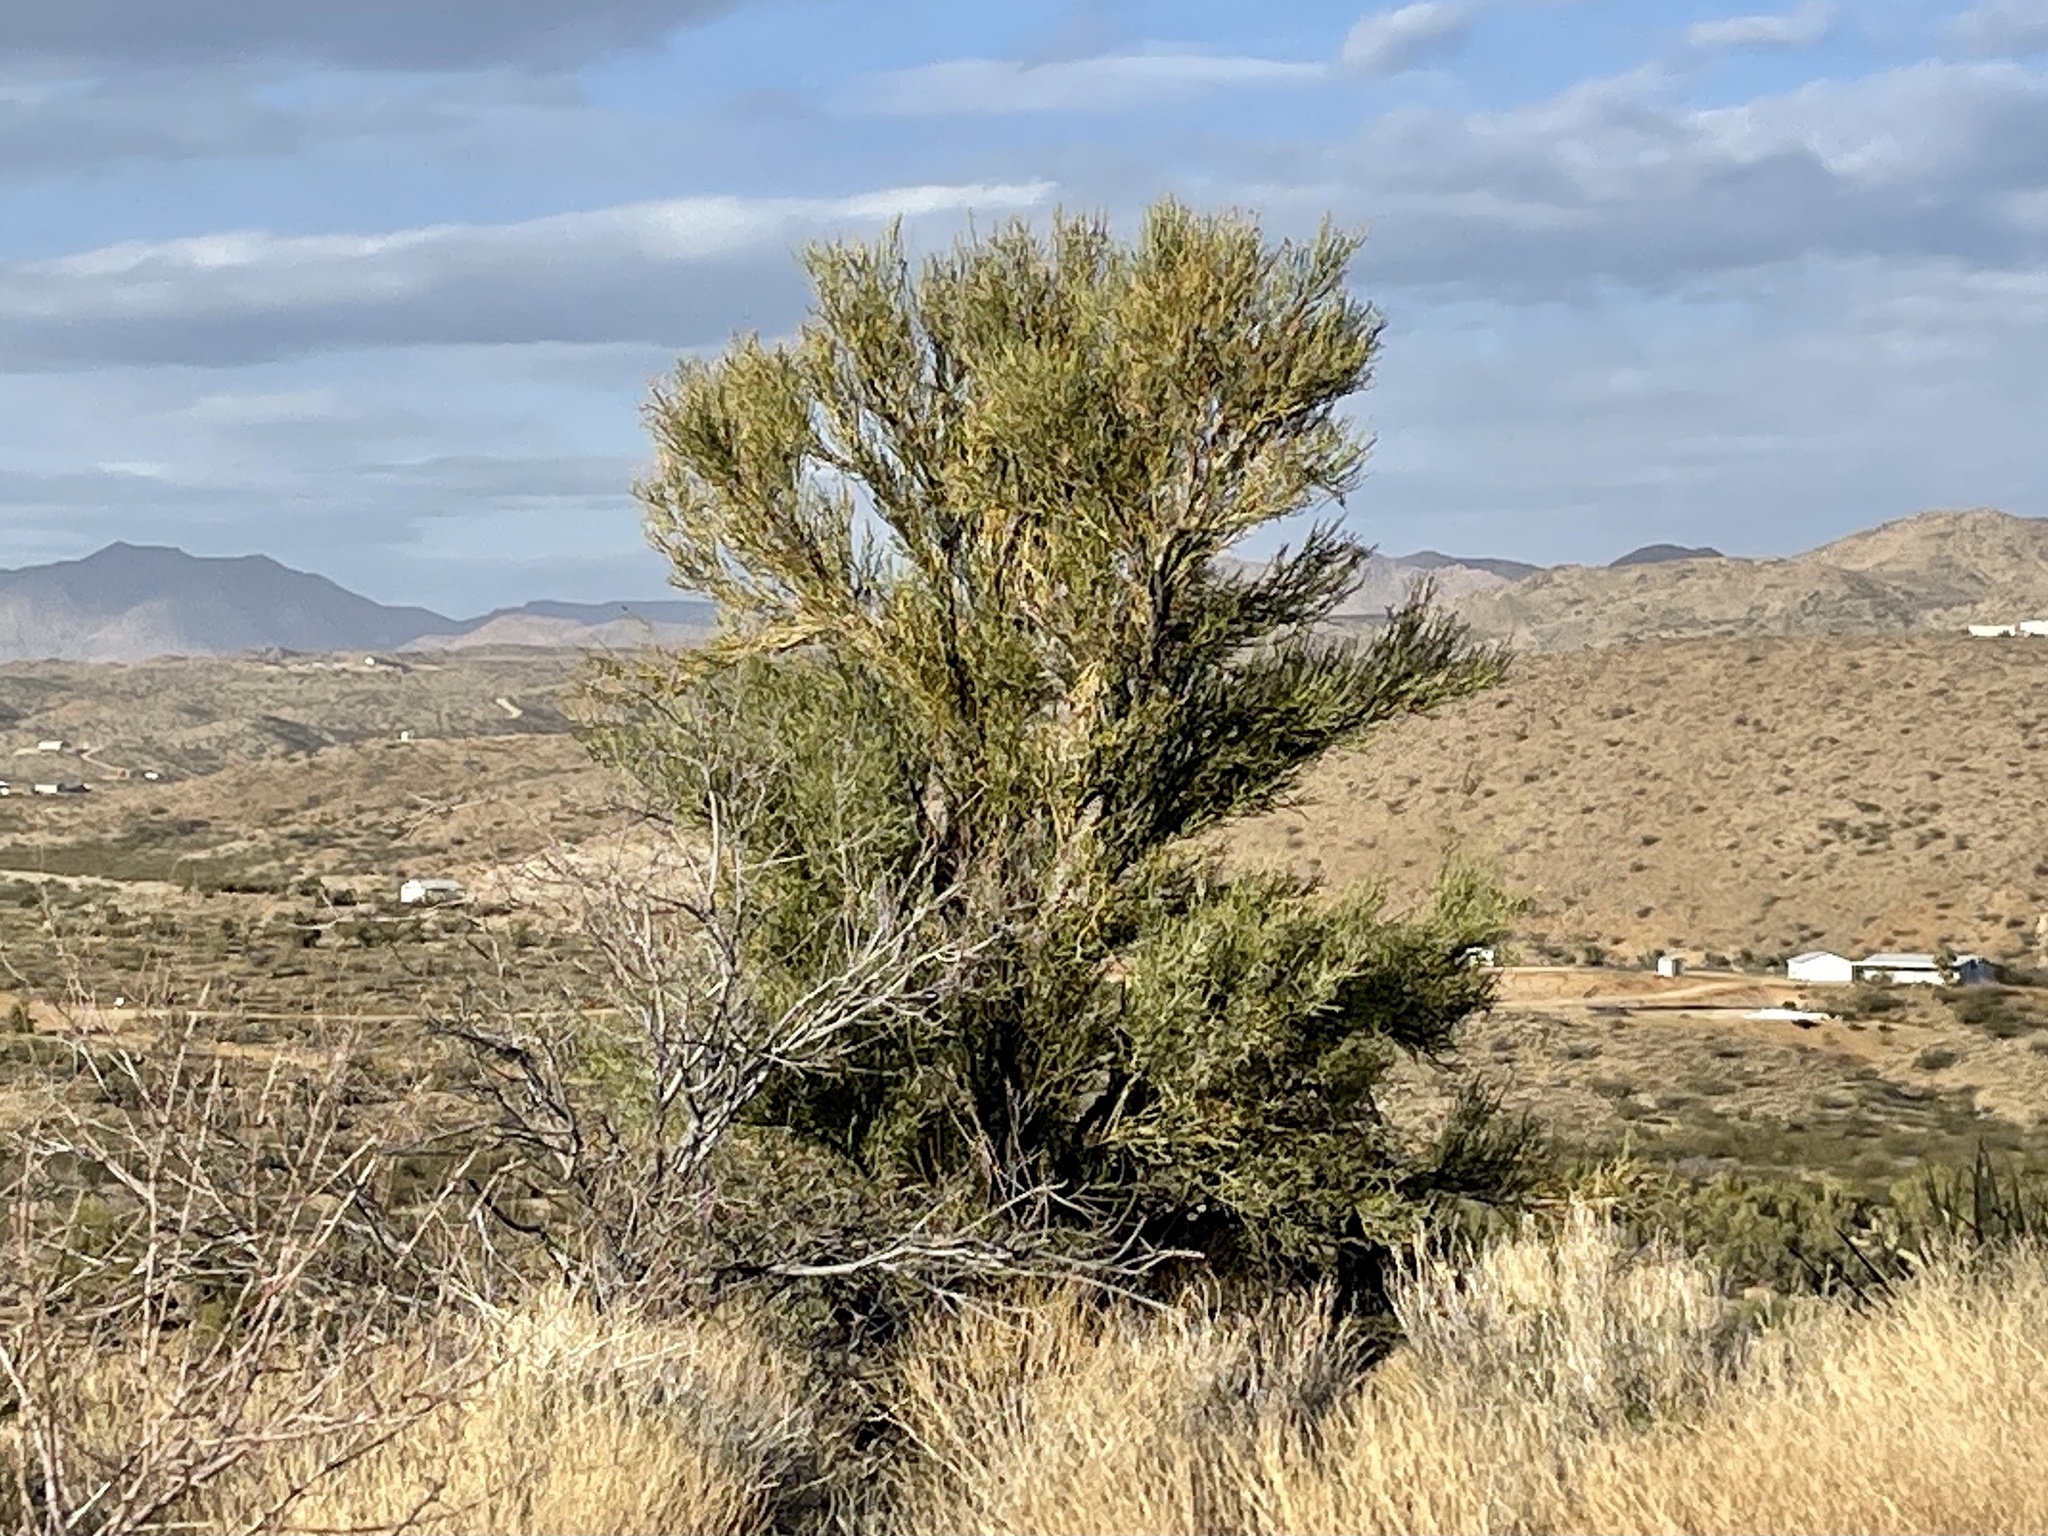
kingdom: Plantae
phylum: Tracheophyta
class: Magnoliopsida
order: Celastrales
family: Celastraceae
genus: Canotia
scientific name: Canotia holacantha
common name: Crucifixion thorns
